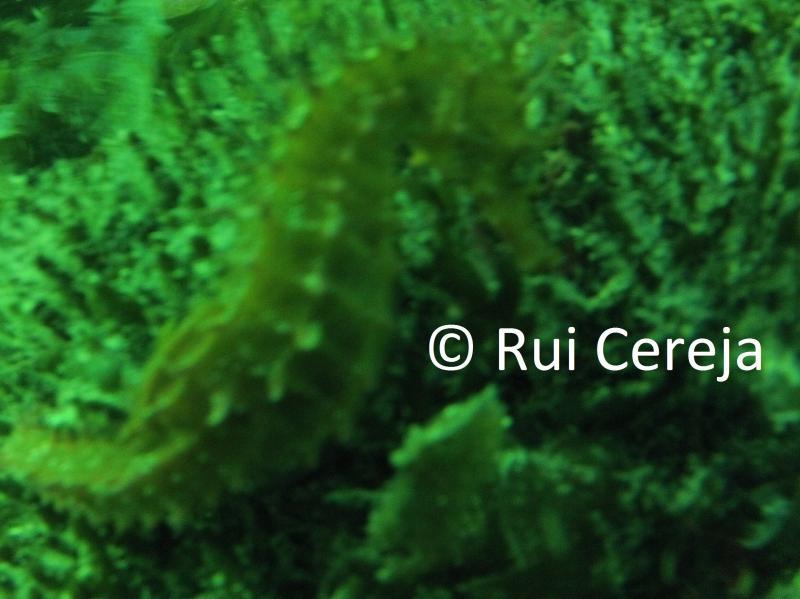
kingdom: Animalia
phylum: Chordata
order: Syngnathiformes
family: Syngnathidae
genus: Hippocampus
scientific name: Hippocampus
